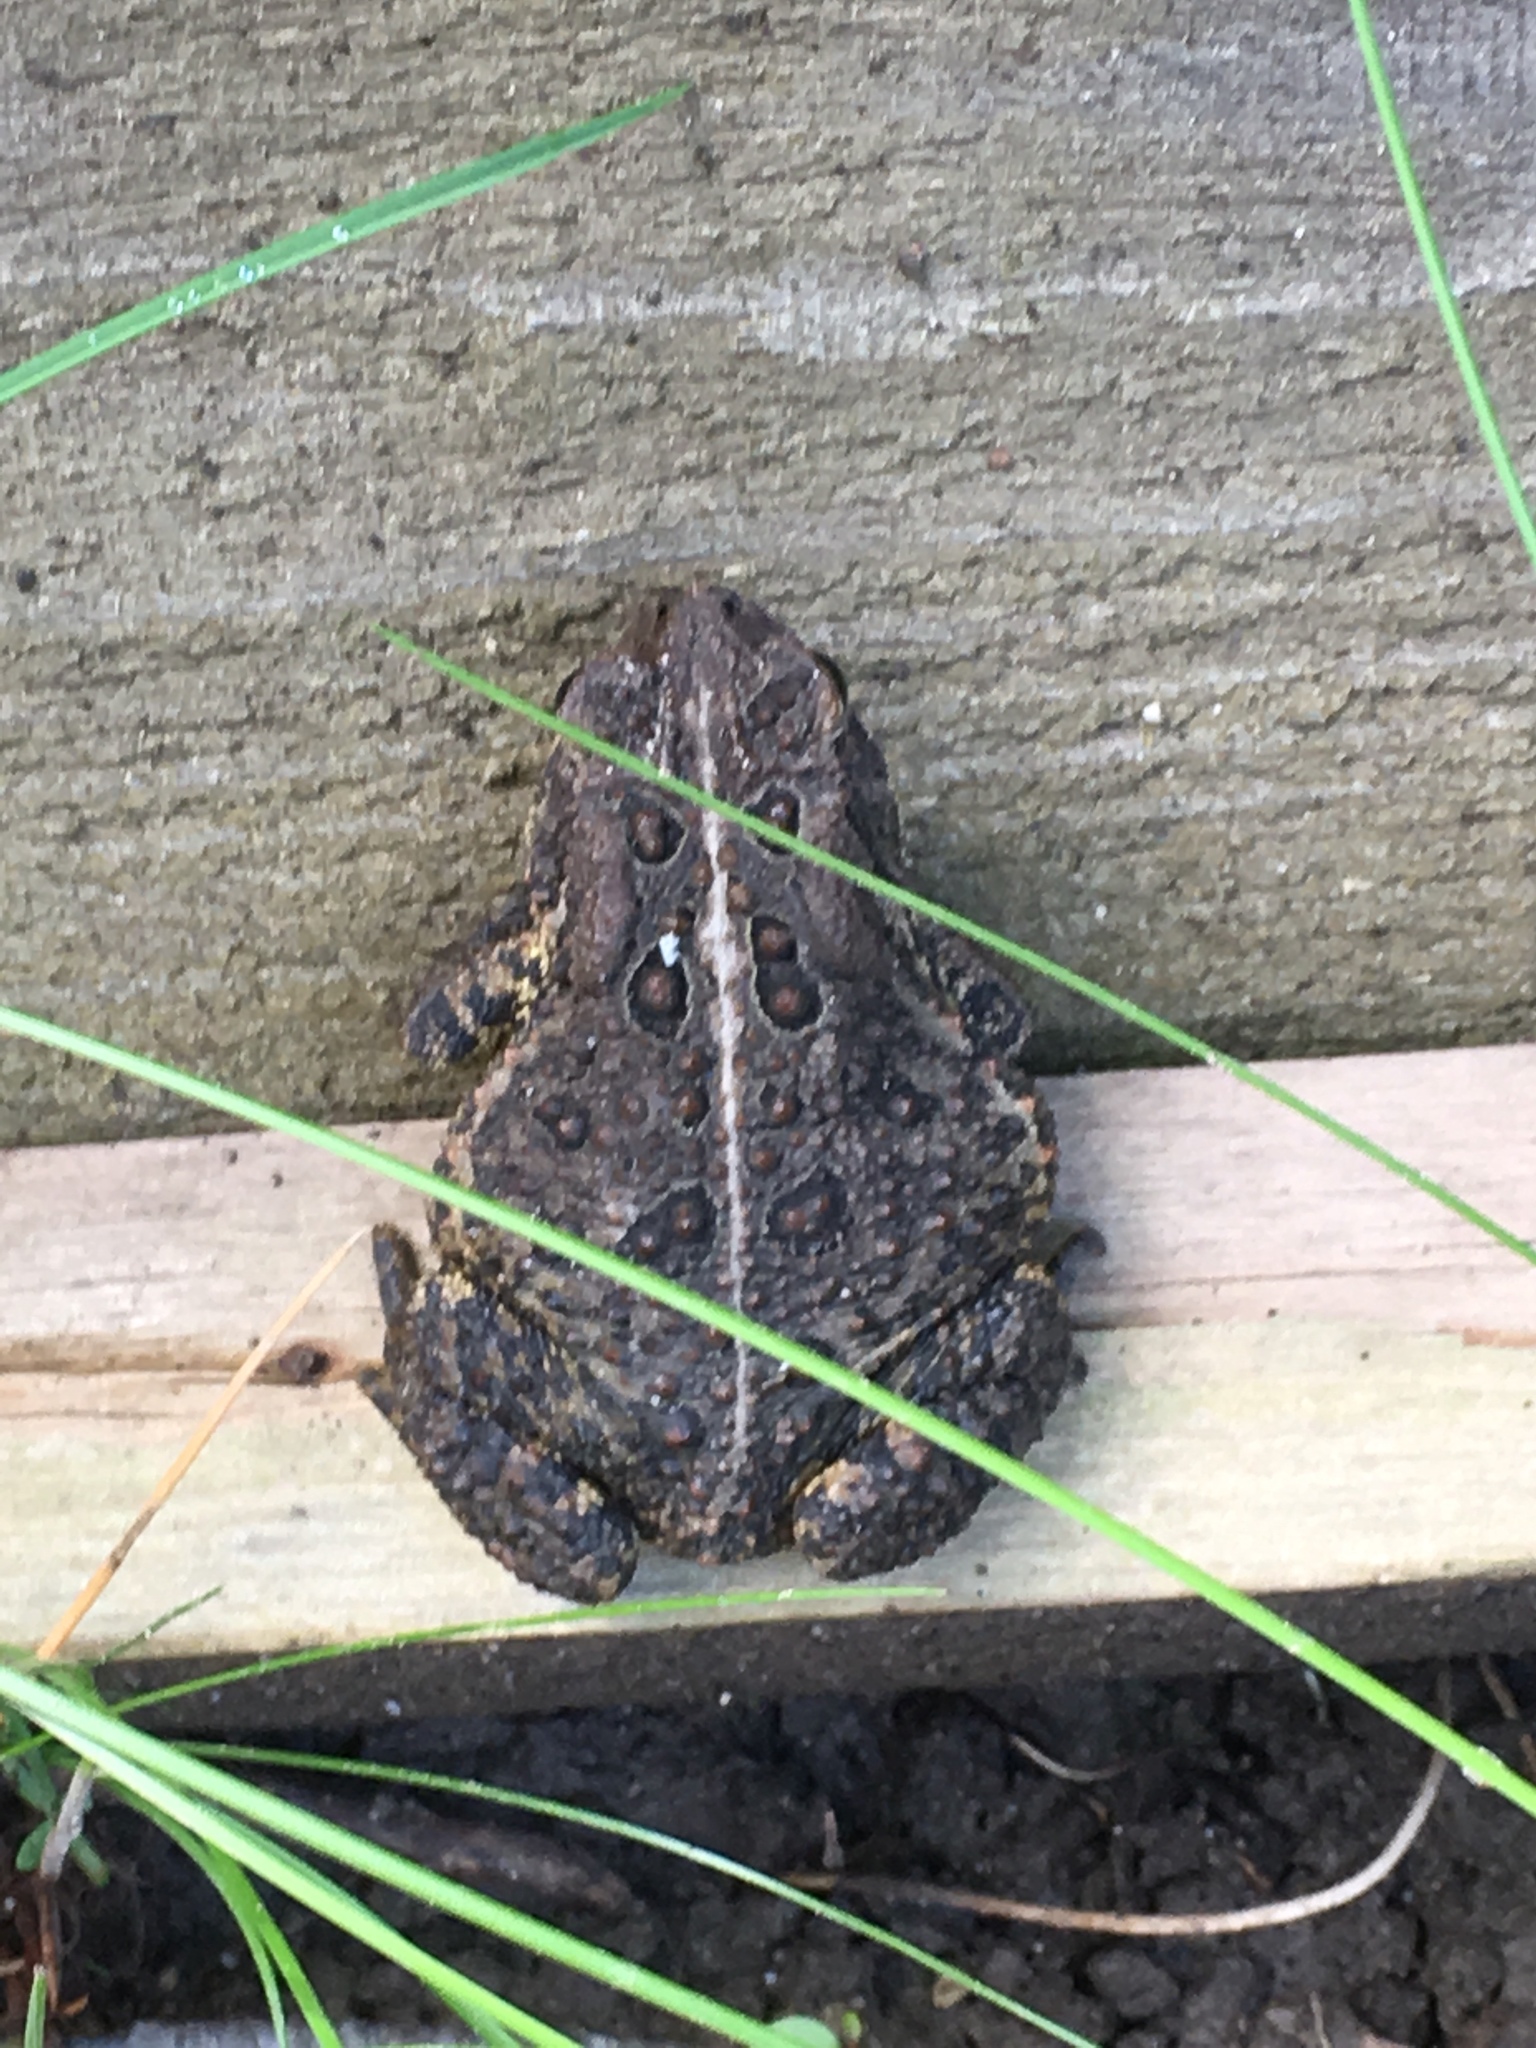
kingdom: Animalia
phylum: Chordata
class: Amphibia
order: Anura
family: Bufonidae
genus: Anaxyrus
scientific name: Anaxyrus americanus
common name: American toad
